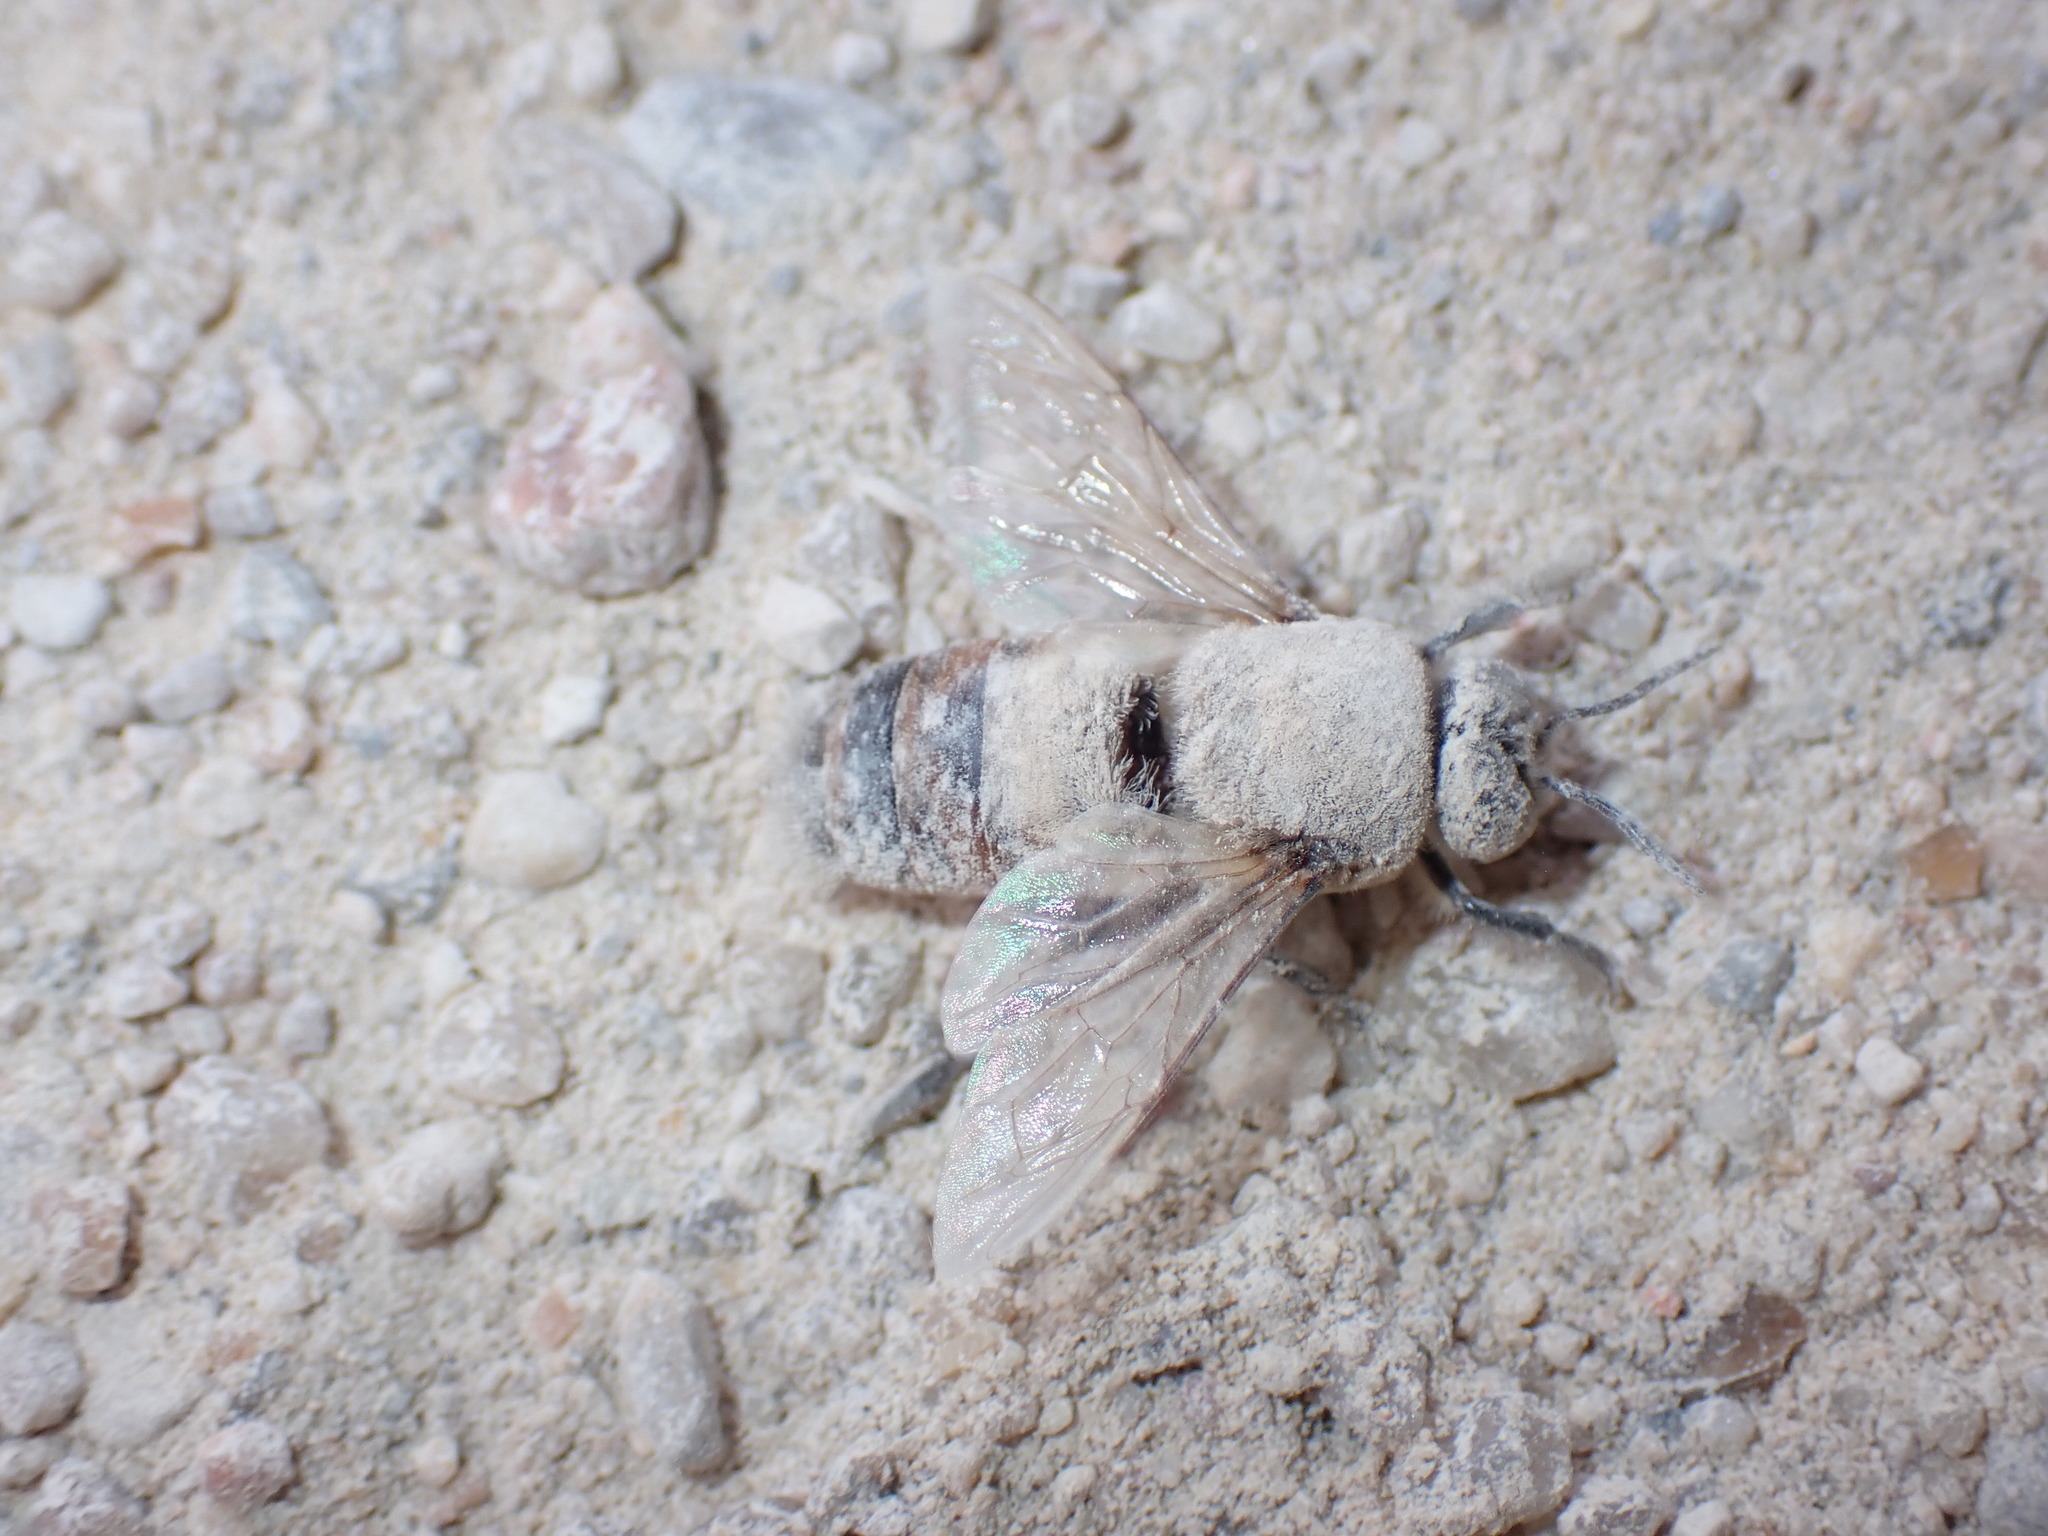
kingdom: Animalia
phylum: Arthropoda
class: Insecta
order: Hymenoptera
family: Apidae
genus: Apis
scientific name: Apis mellifera
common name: Honey bee
